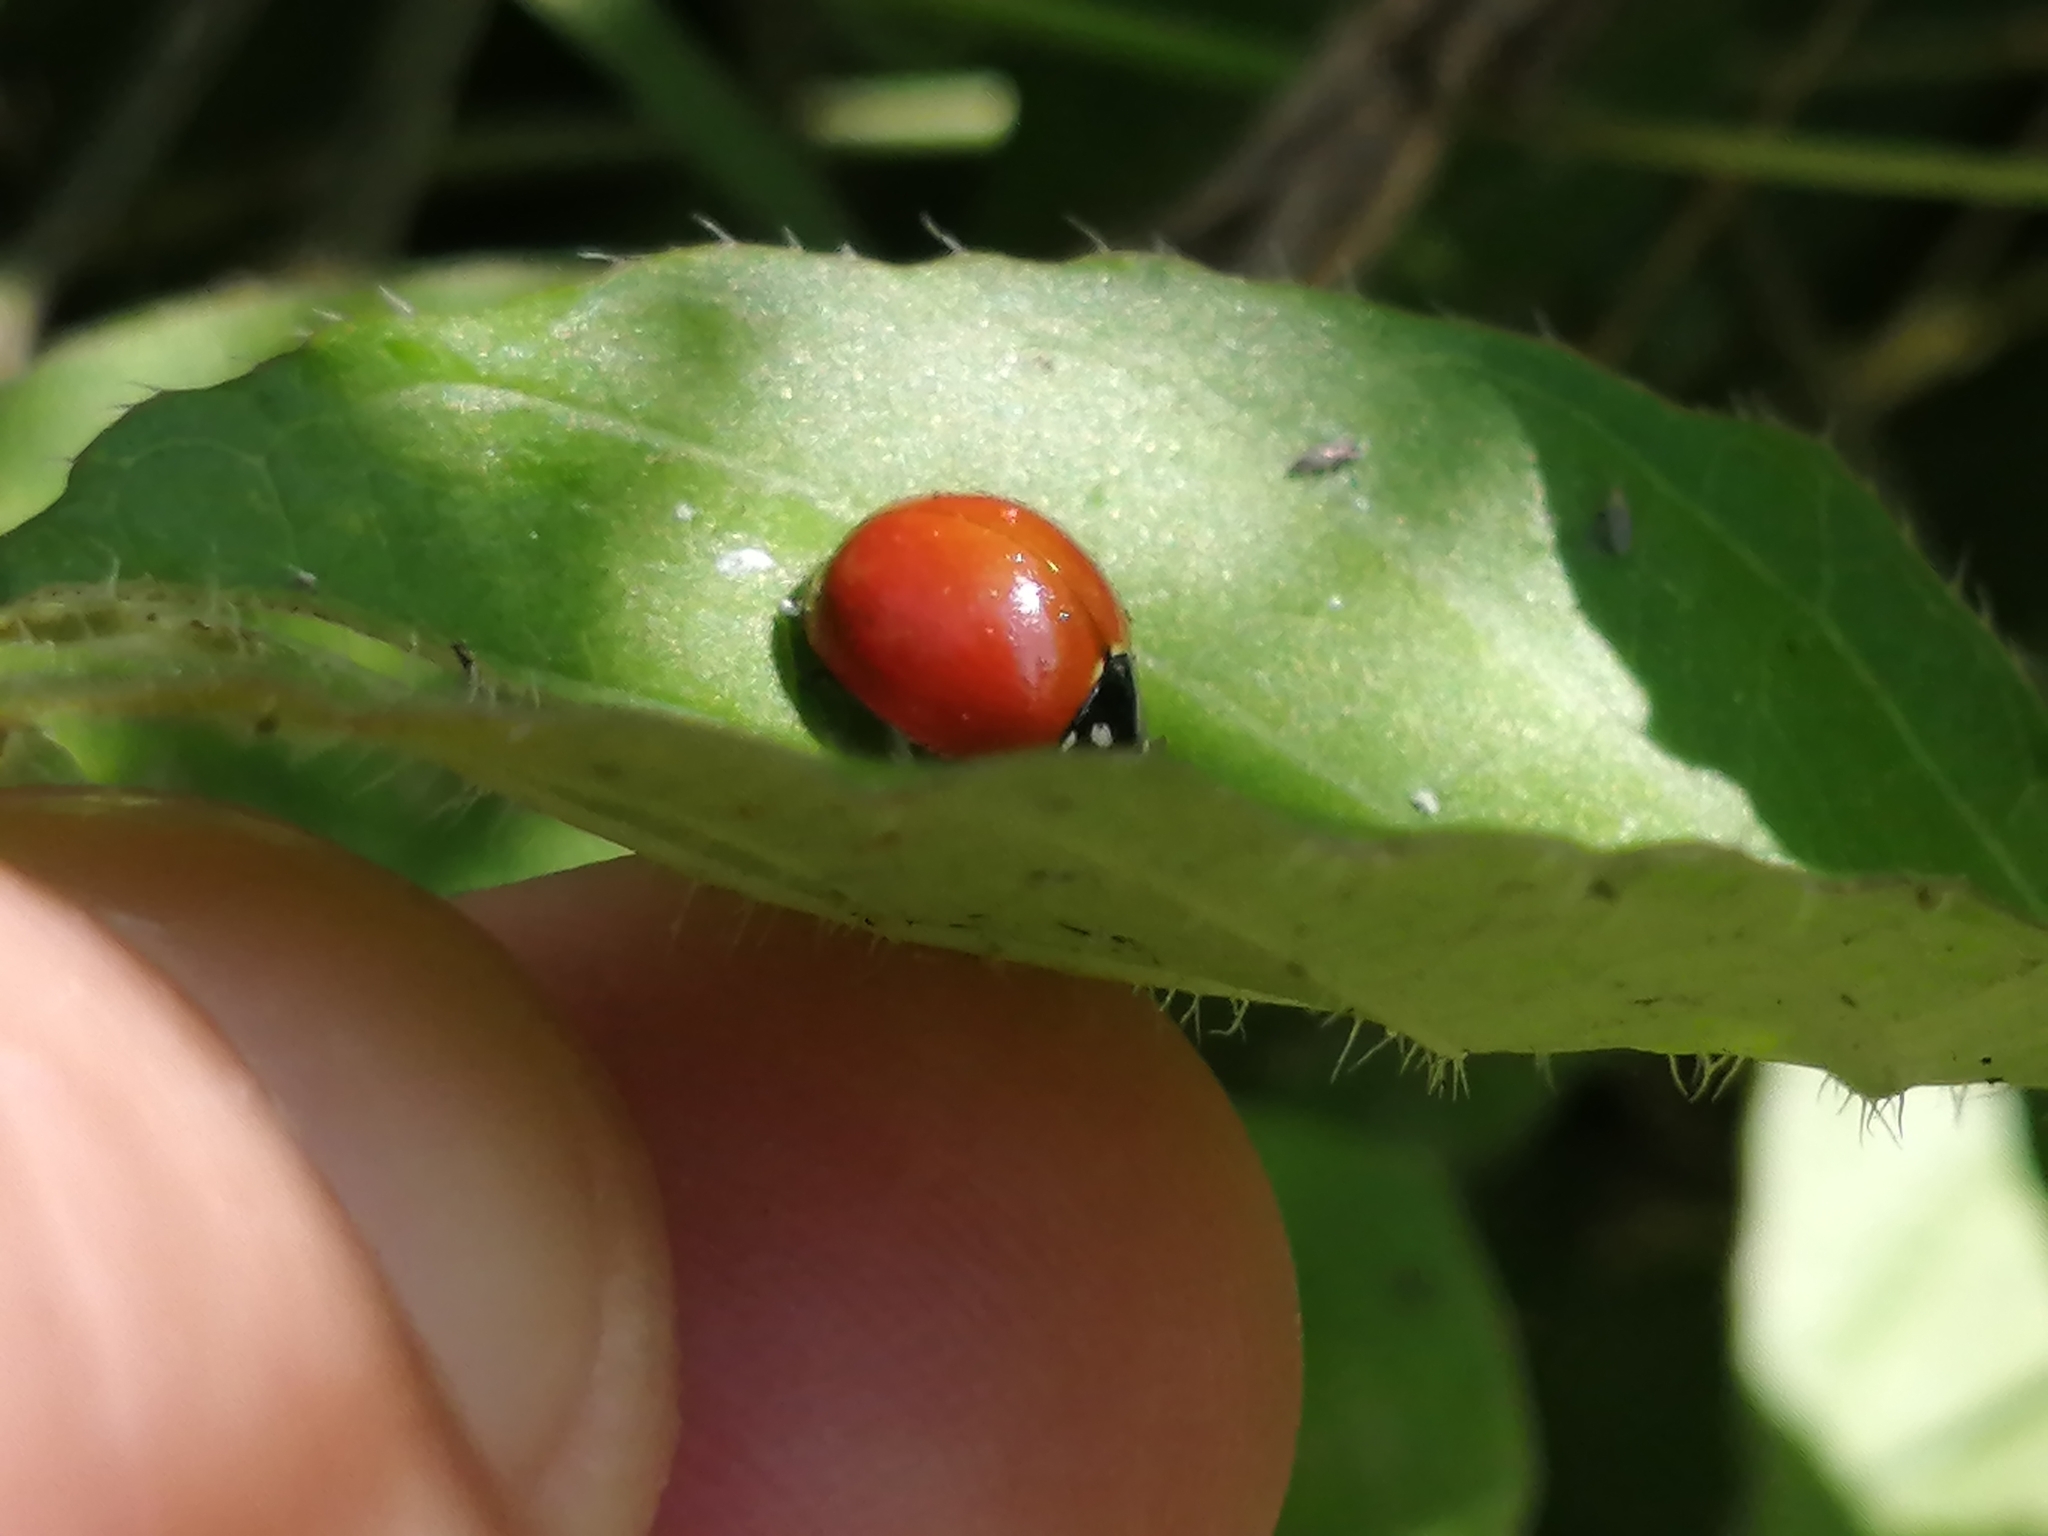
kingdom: Animalia
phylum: Arthropoda
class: Insecta
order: Coleoptera
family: Coccinellidae
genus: Cycloneda
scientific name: Cycloneda sanguinea
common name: Ladybird beetle
